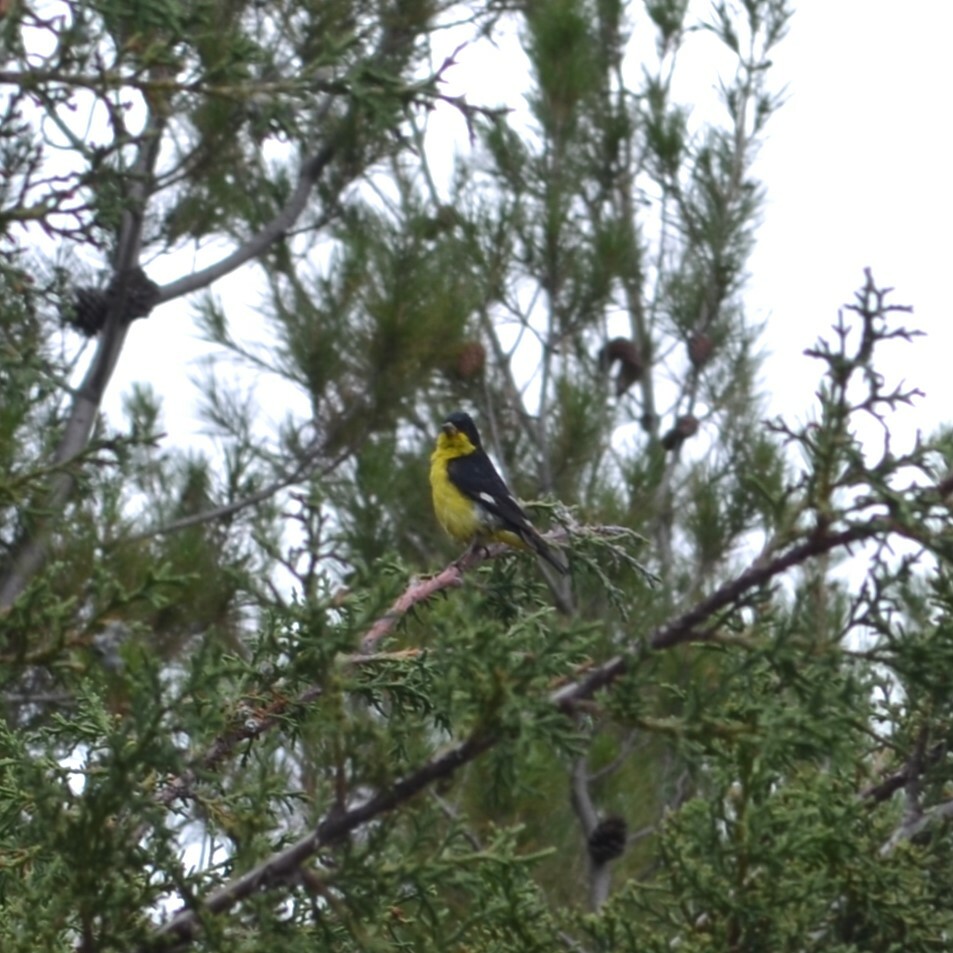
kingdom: Animalia
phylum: Chordata
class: Aves
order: Passeriformes
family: Fringillidae
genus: Spinus
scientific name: Spinus psaltria
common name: Lesser goldfinch
